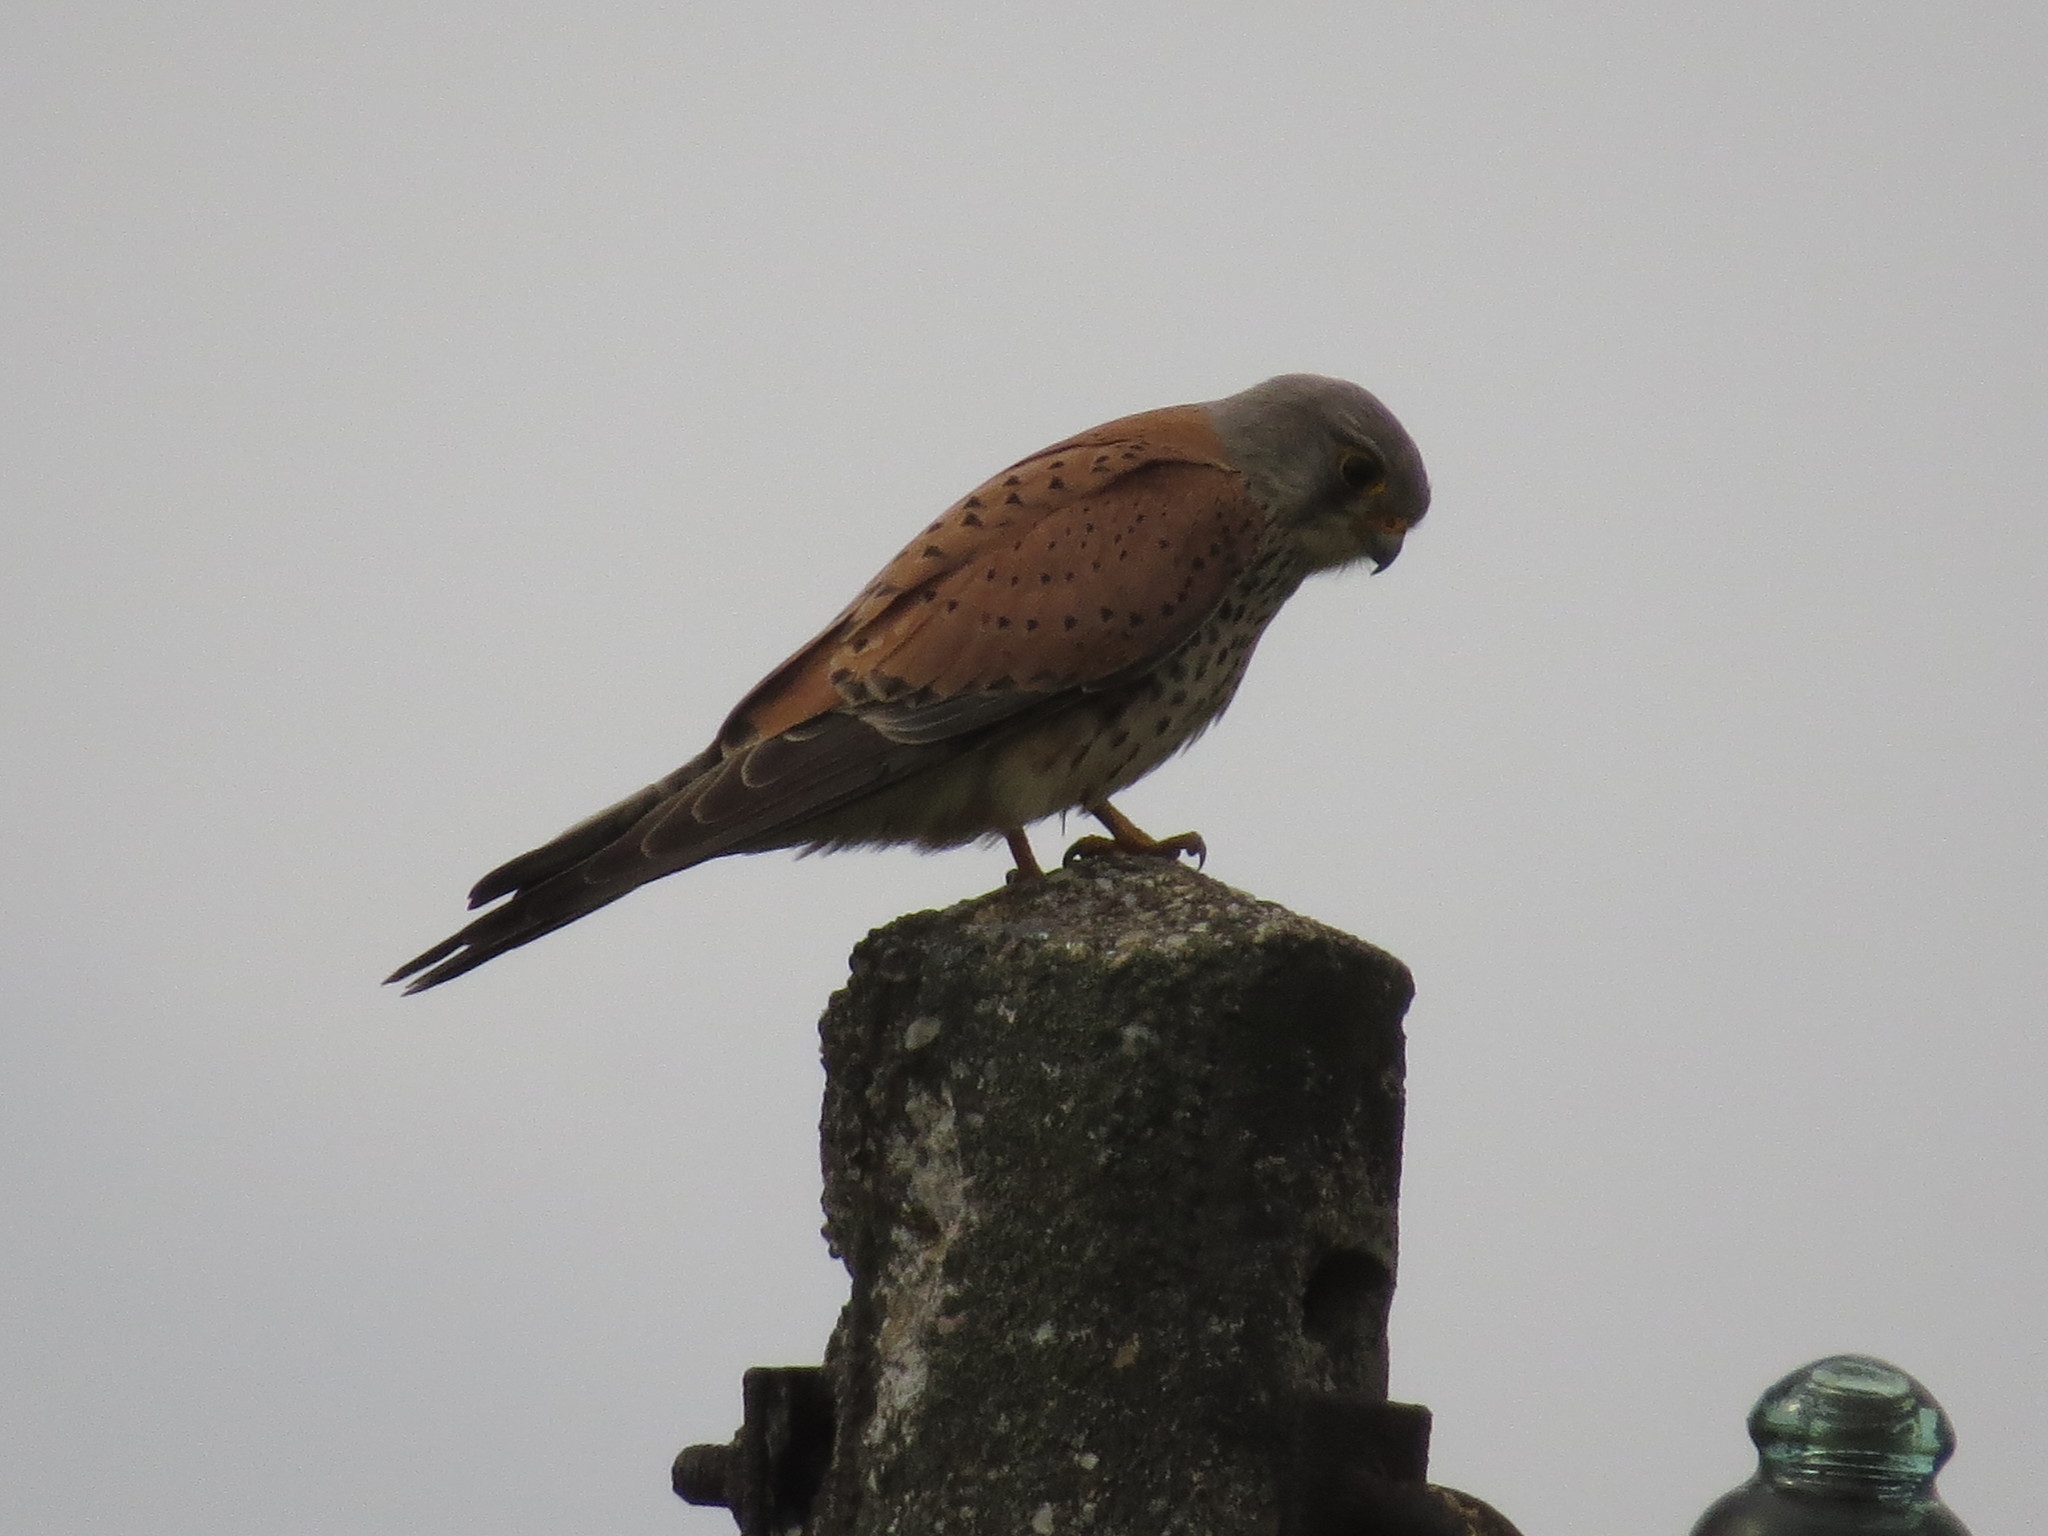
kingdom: Animalia
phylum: Chordata
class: Aves
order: Falconiformes
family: Falconidae
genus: Falco
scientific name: Falco tinnunculus
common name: Common kestrel
